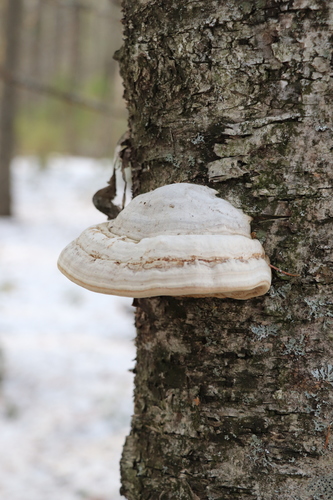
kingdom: Fungi
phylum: Basidiomycota
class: Agaricomycetes
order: Polyporales
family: Polyporaceae
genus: Fomes
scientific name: Fomes fomentarius
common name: Hoof fungus
